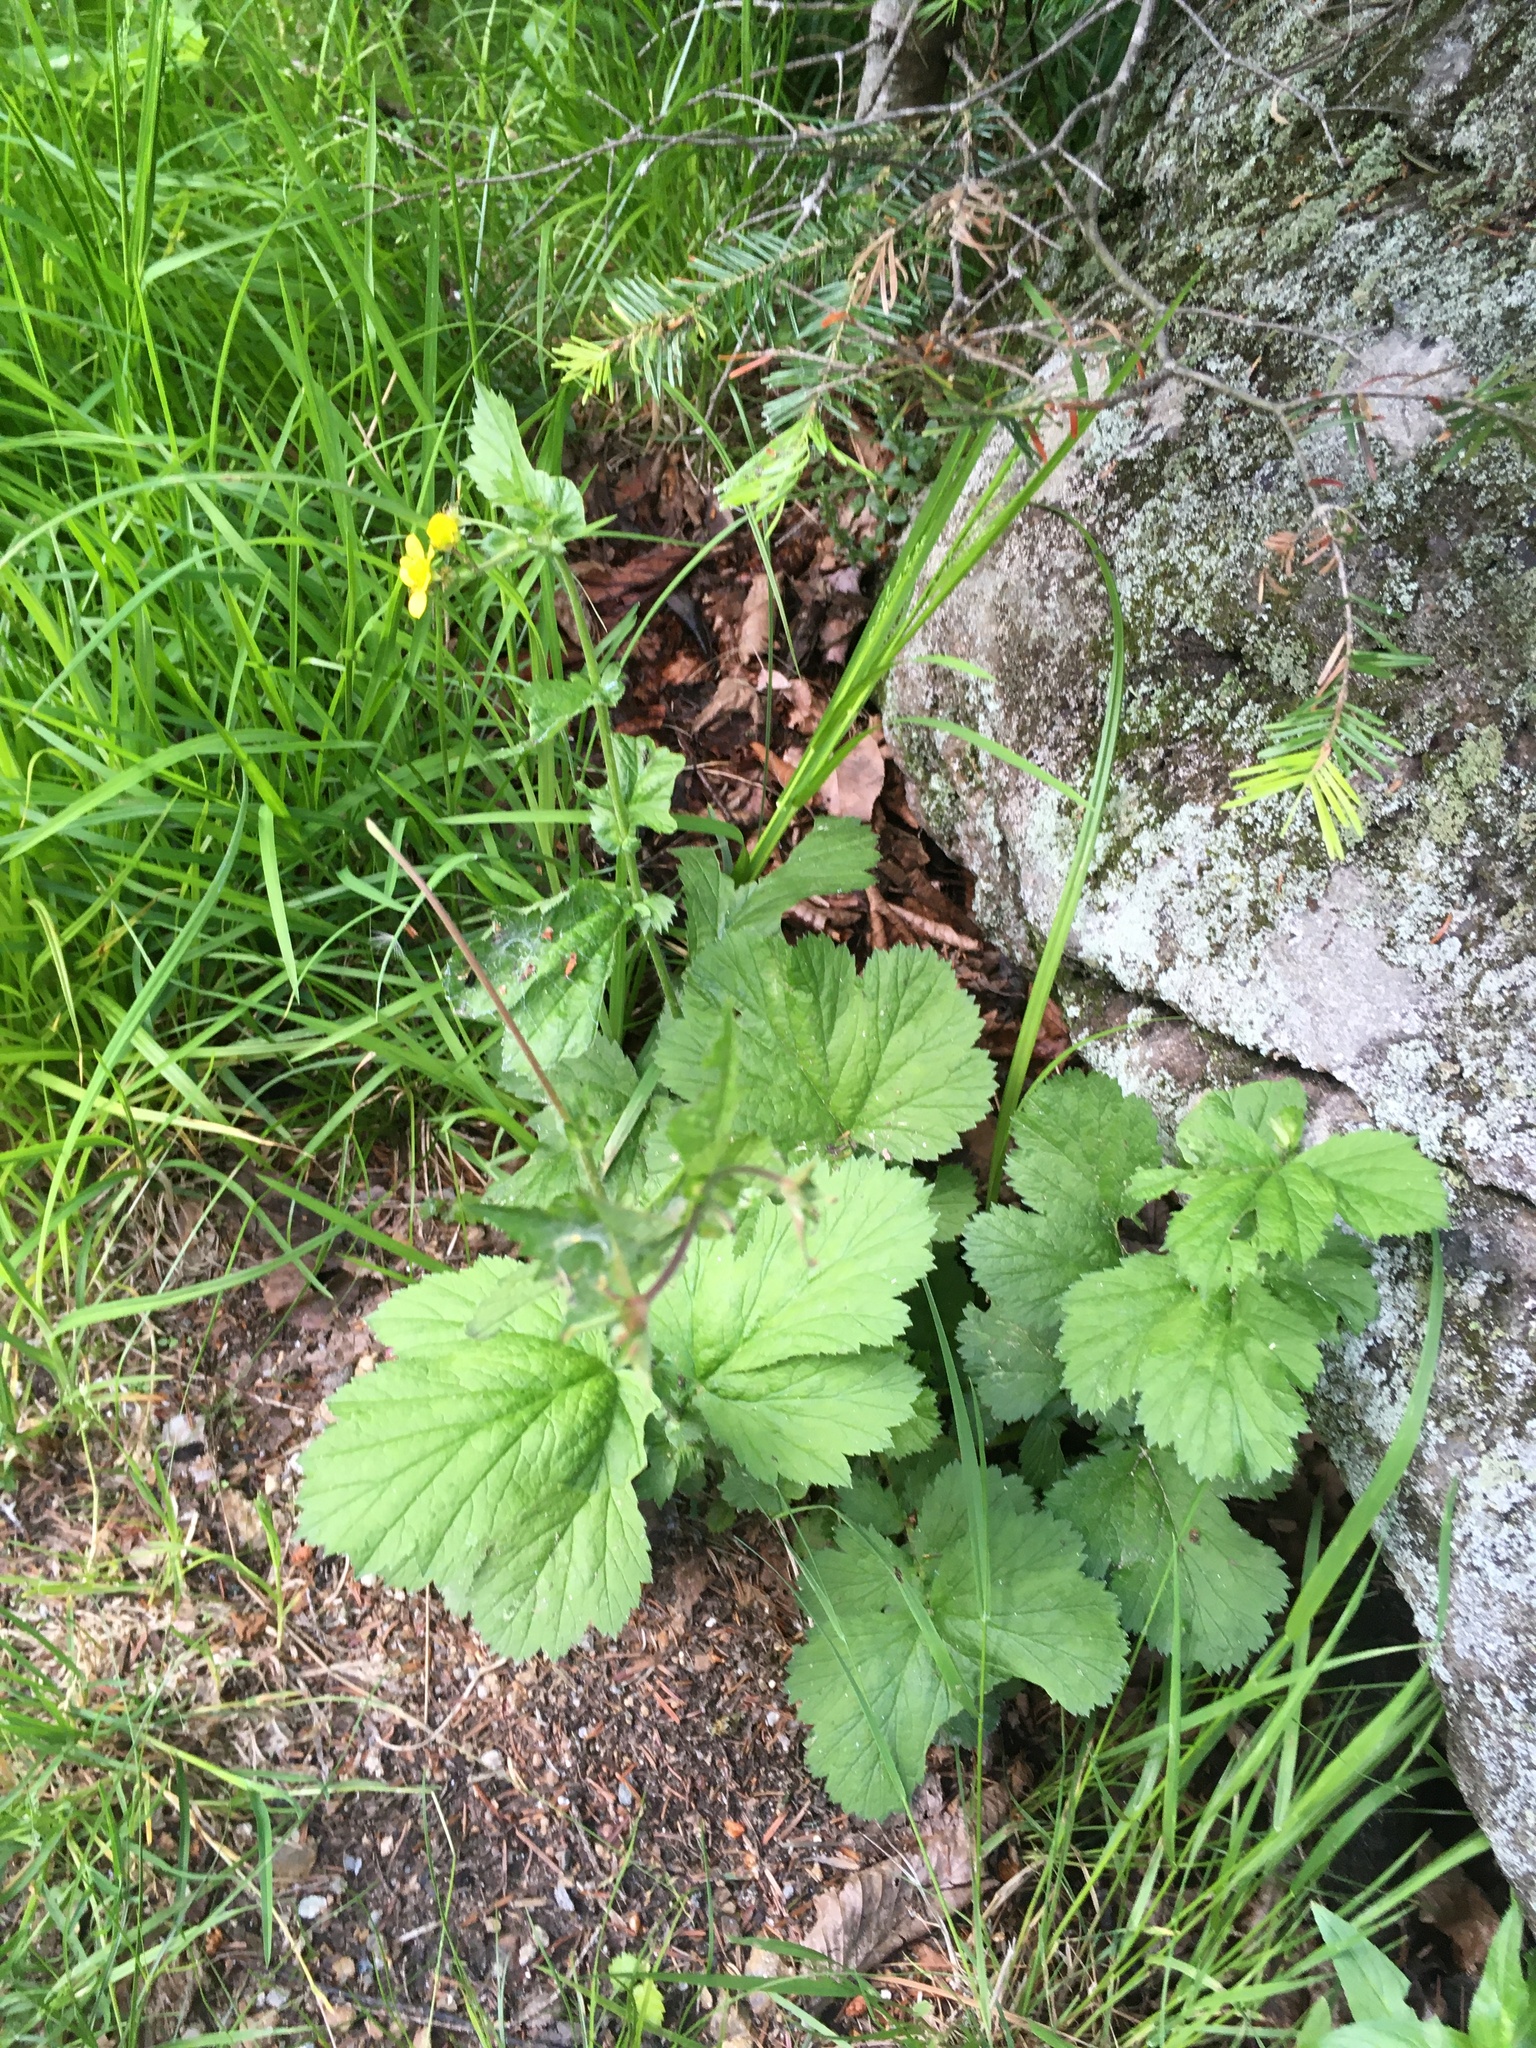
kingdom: Plantae
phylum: Tracheophyta
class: Magnoliopsida
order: Rosales
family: Rosaceae
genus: Geum
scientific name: Geum macrophyllum
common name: Large-leaved avens
